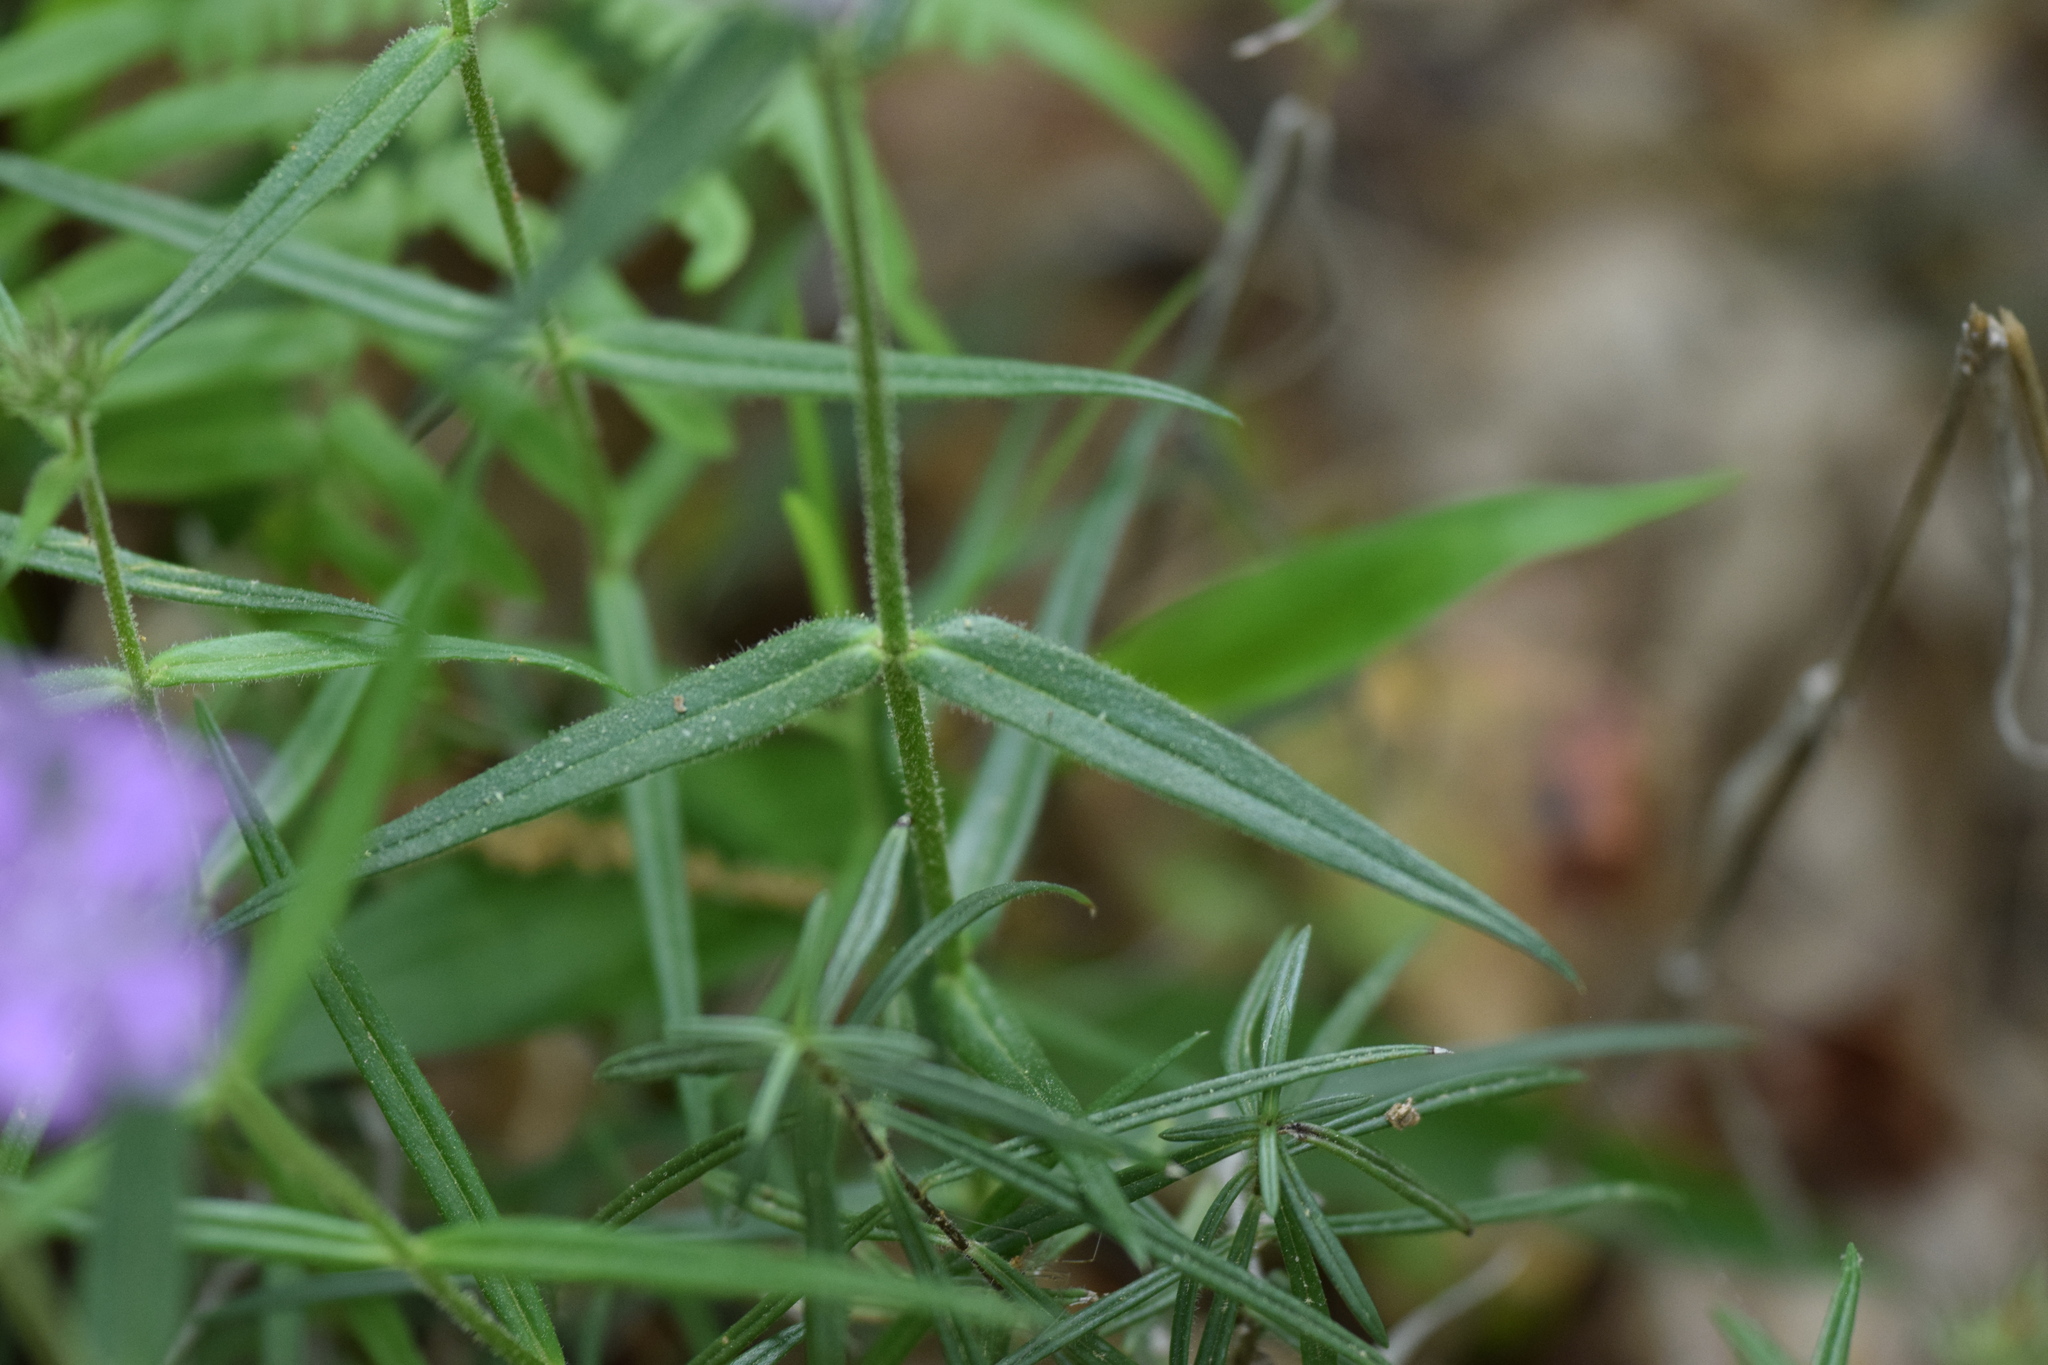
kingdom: Plantae
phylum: Tracheophyta
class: Magnoliopsida
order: Ericales
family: Polemoniaceae
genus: Phlox
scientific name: Phlox pilosa
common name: Prairie phlox
